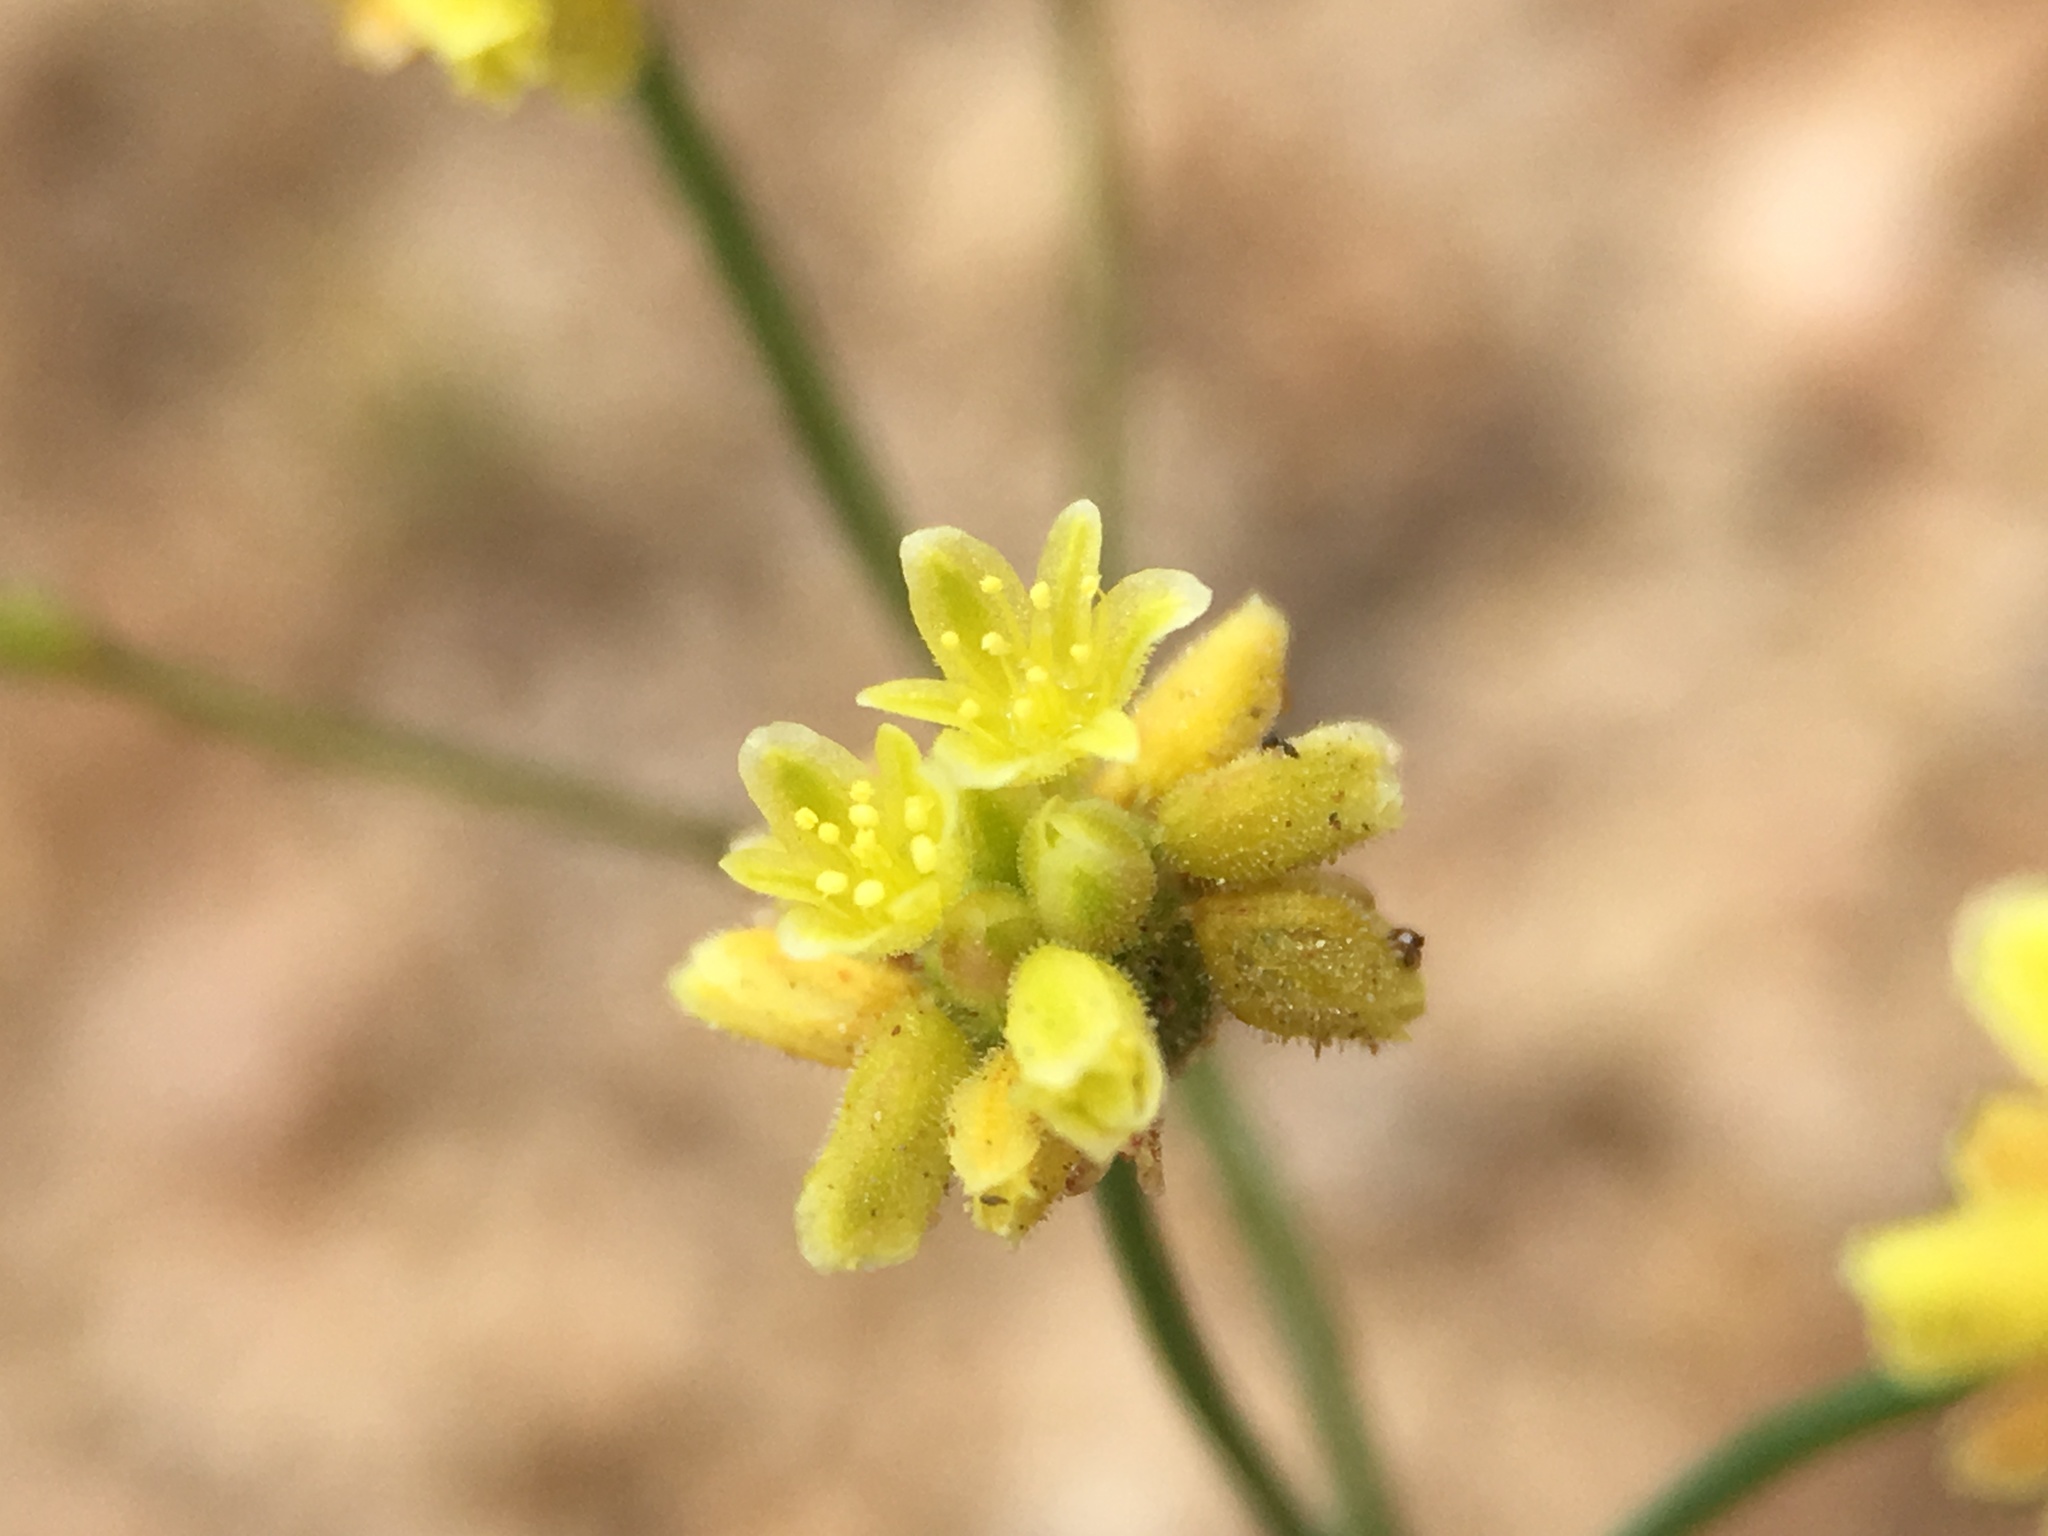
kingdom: Plantae
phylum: Tracheophyta
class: Magnoliopsida
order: Caryophyllales
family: Polygonaceae
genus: Eriogonum
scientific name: Eriogonum pusillum
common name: Yellow turbans
